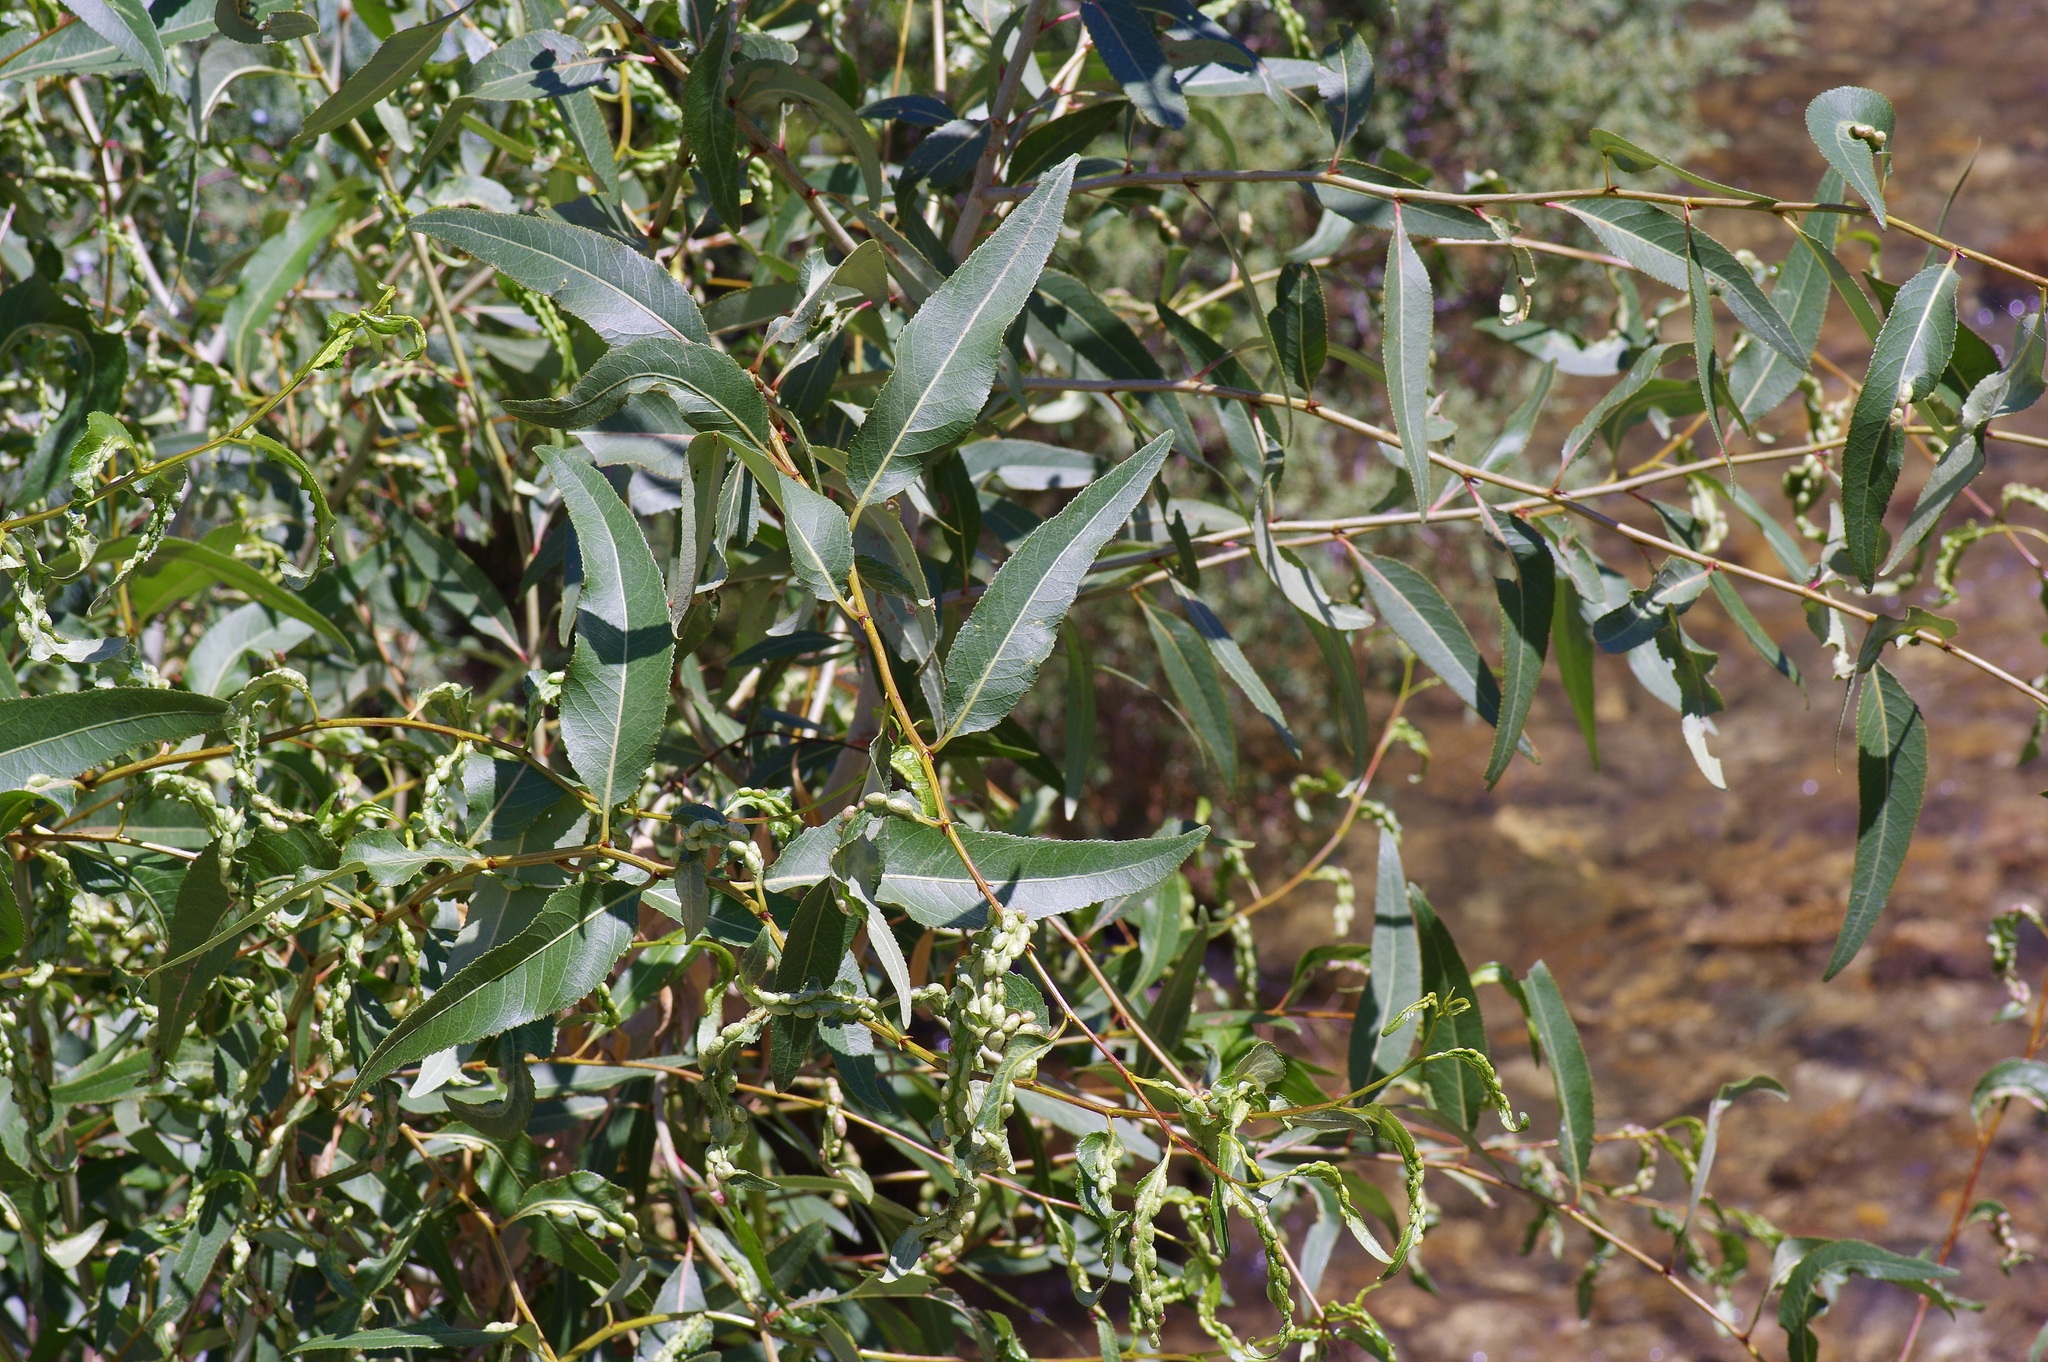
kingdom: Plantae
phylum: Tracheophyta
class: Magnoliopsida
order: Malpighiales
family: Salicaceae
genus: Populus
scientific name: Populus angustifolia
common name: Willow cottonwood
